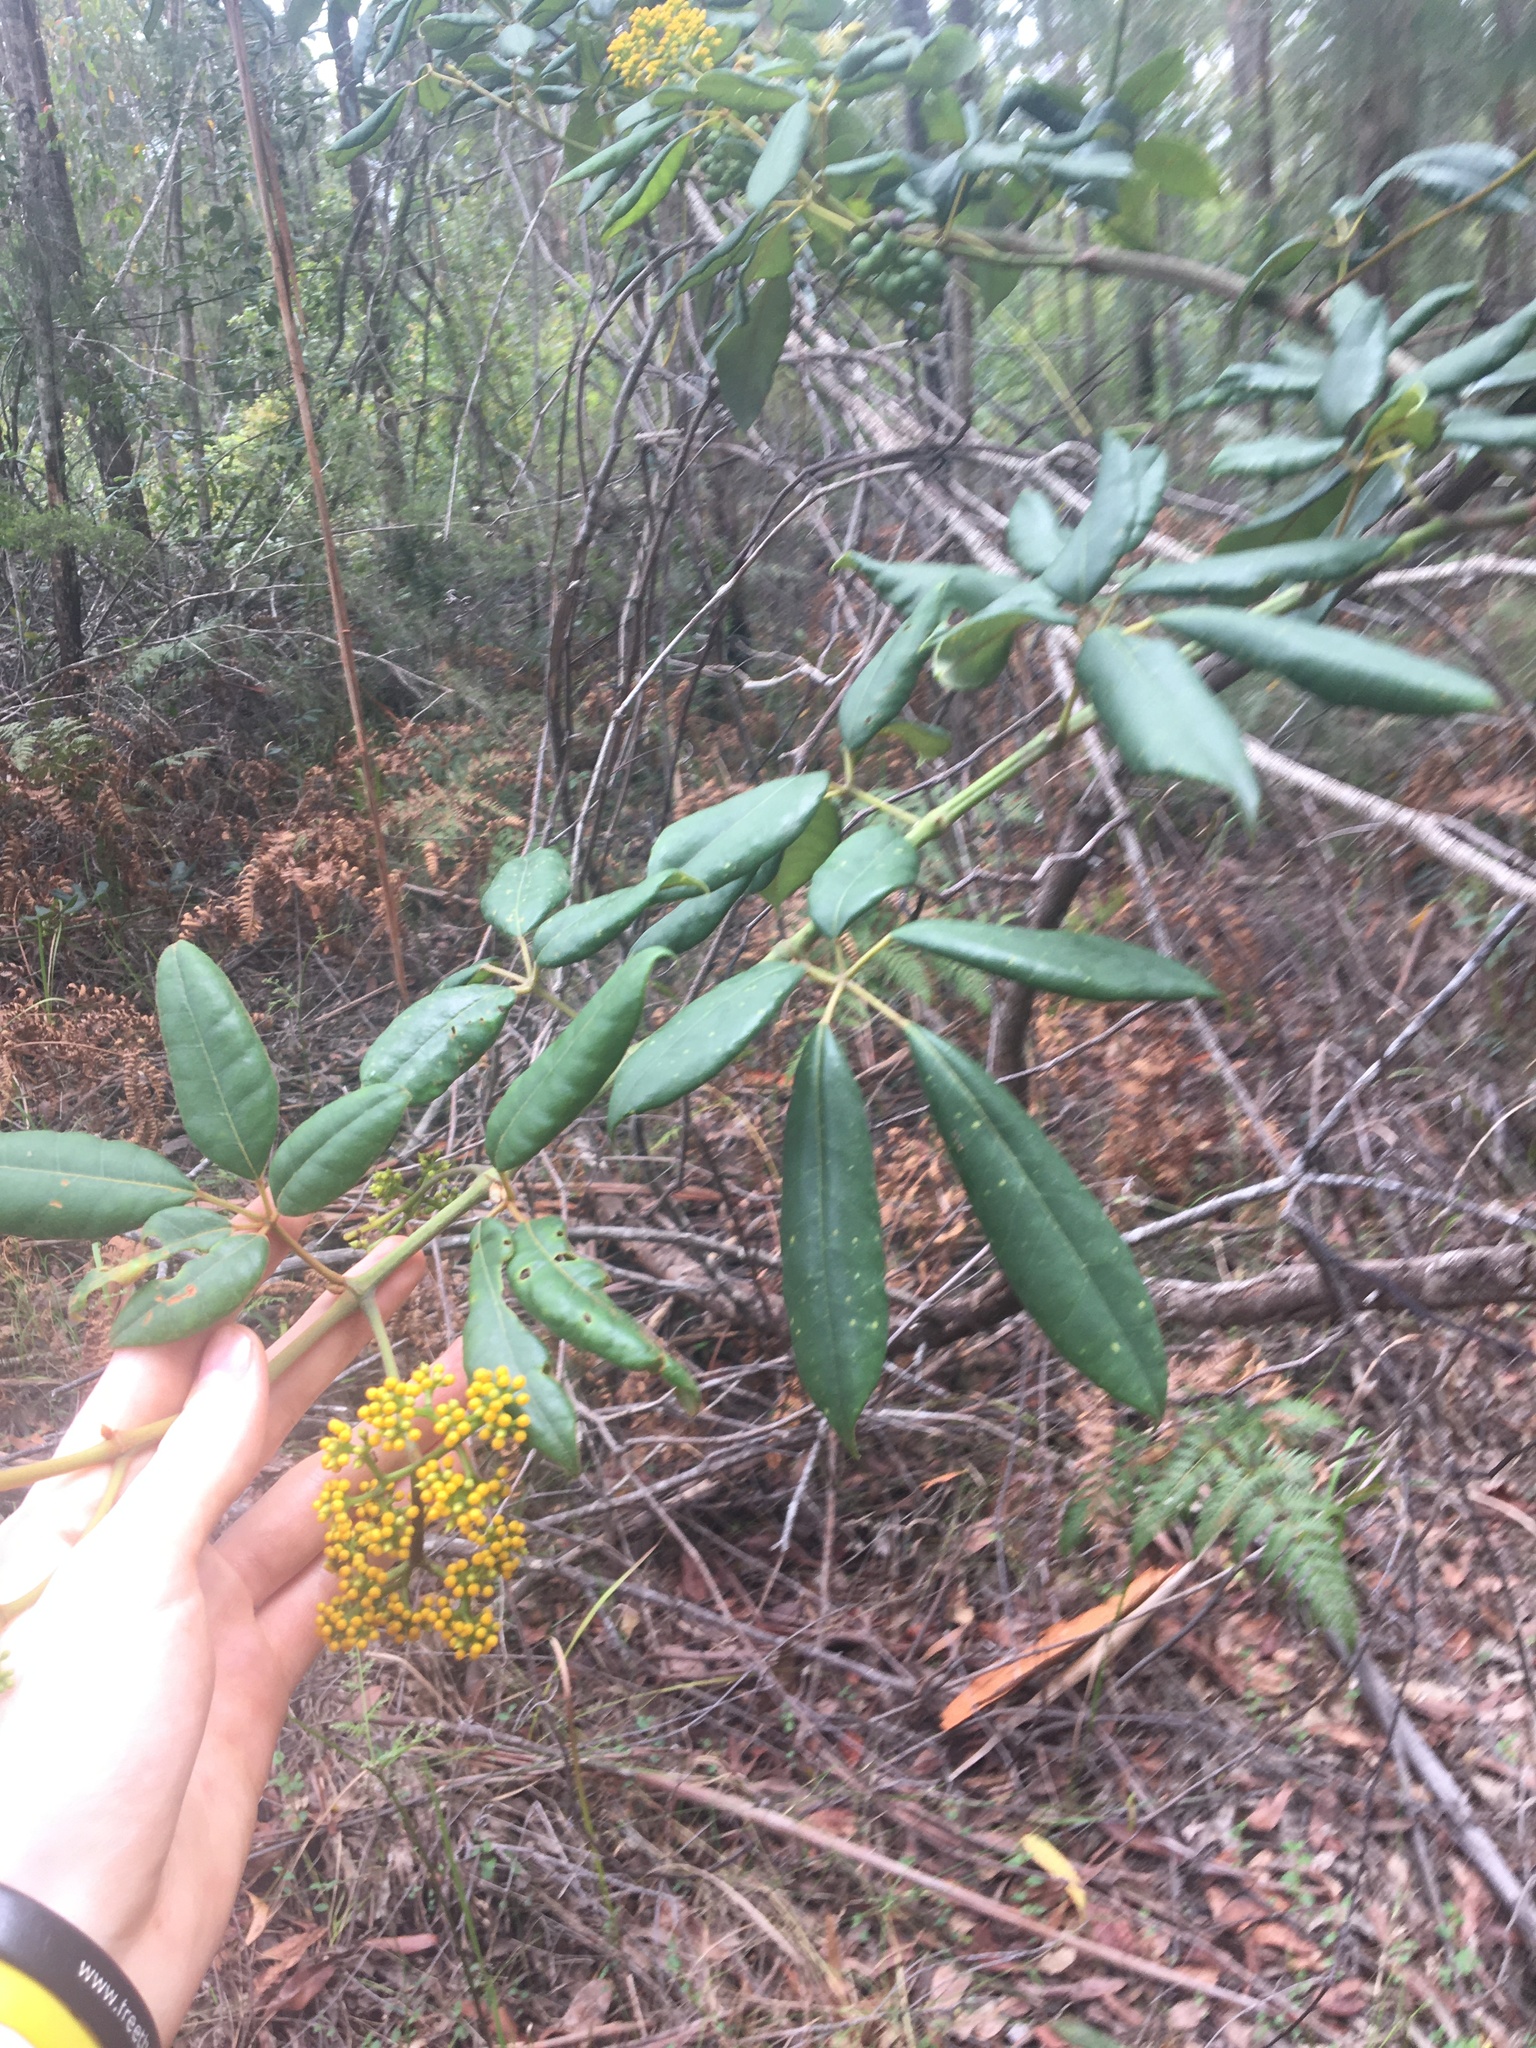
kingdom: Plantae
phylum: Tracheophyta
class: Magnoliopsida
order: Vitales
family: Vitaceae
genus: Nothocissus
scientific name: Nothocissus hypoglauca
